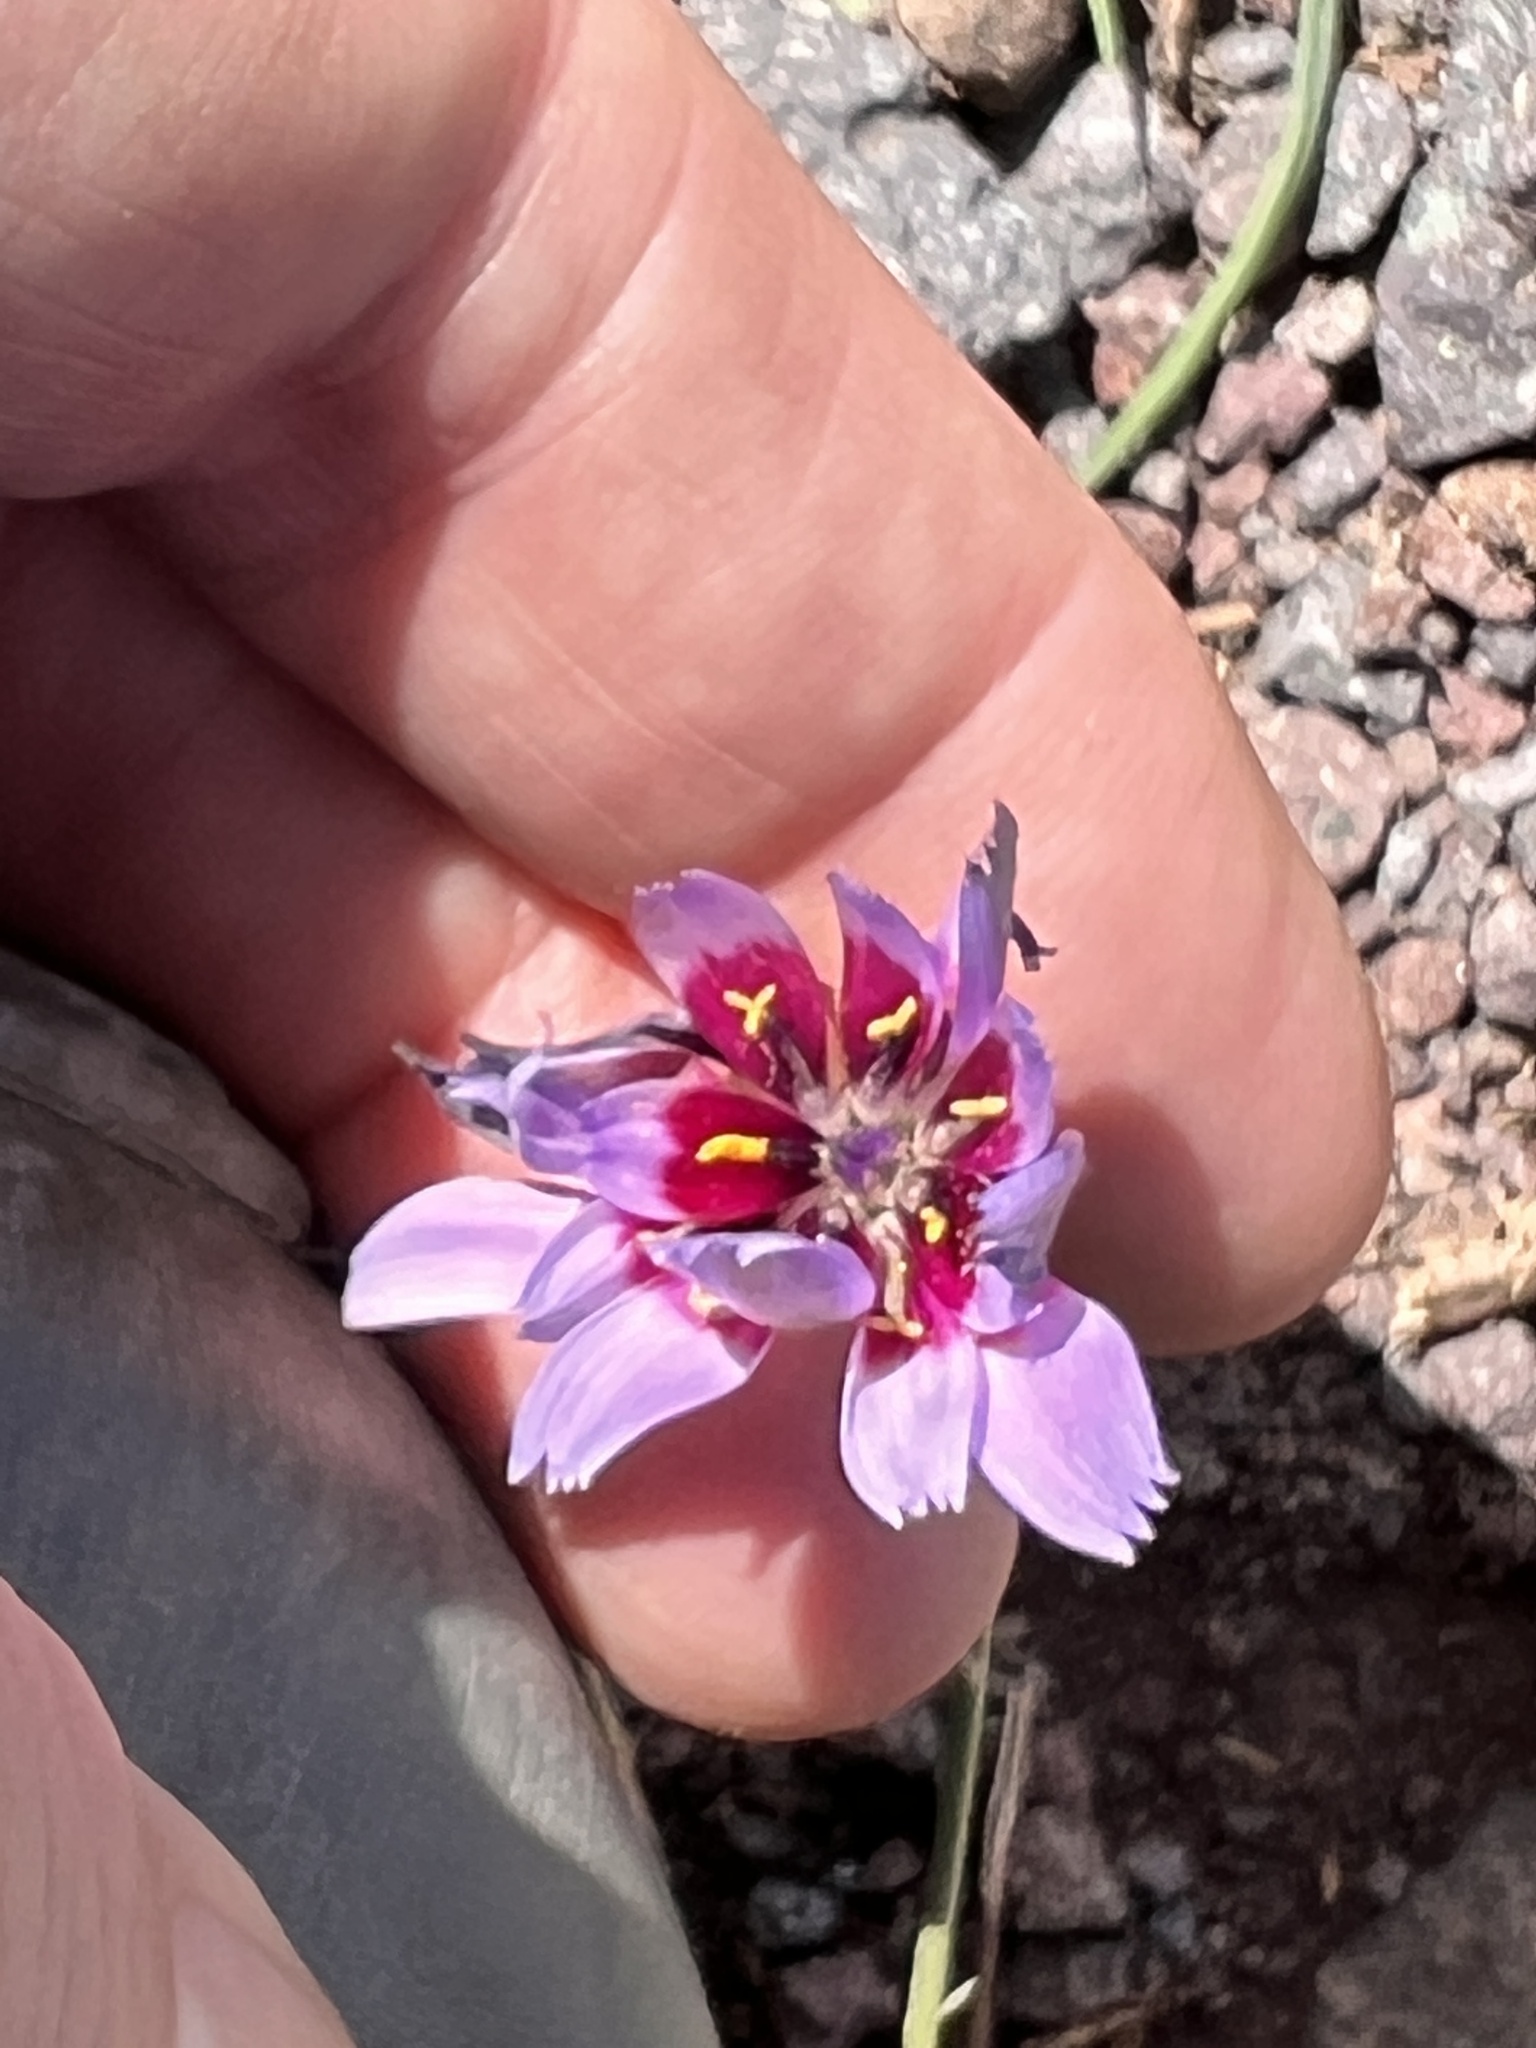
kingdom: Plantae
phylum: Tracheophyta
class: Magnoliopsida
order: Asterales
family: Asteraceae
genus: Catananche
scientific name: Catananche caerulea
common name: Blue cupidone
